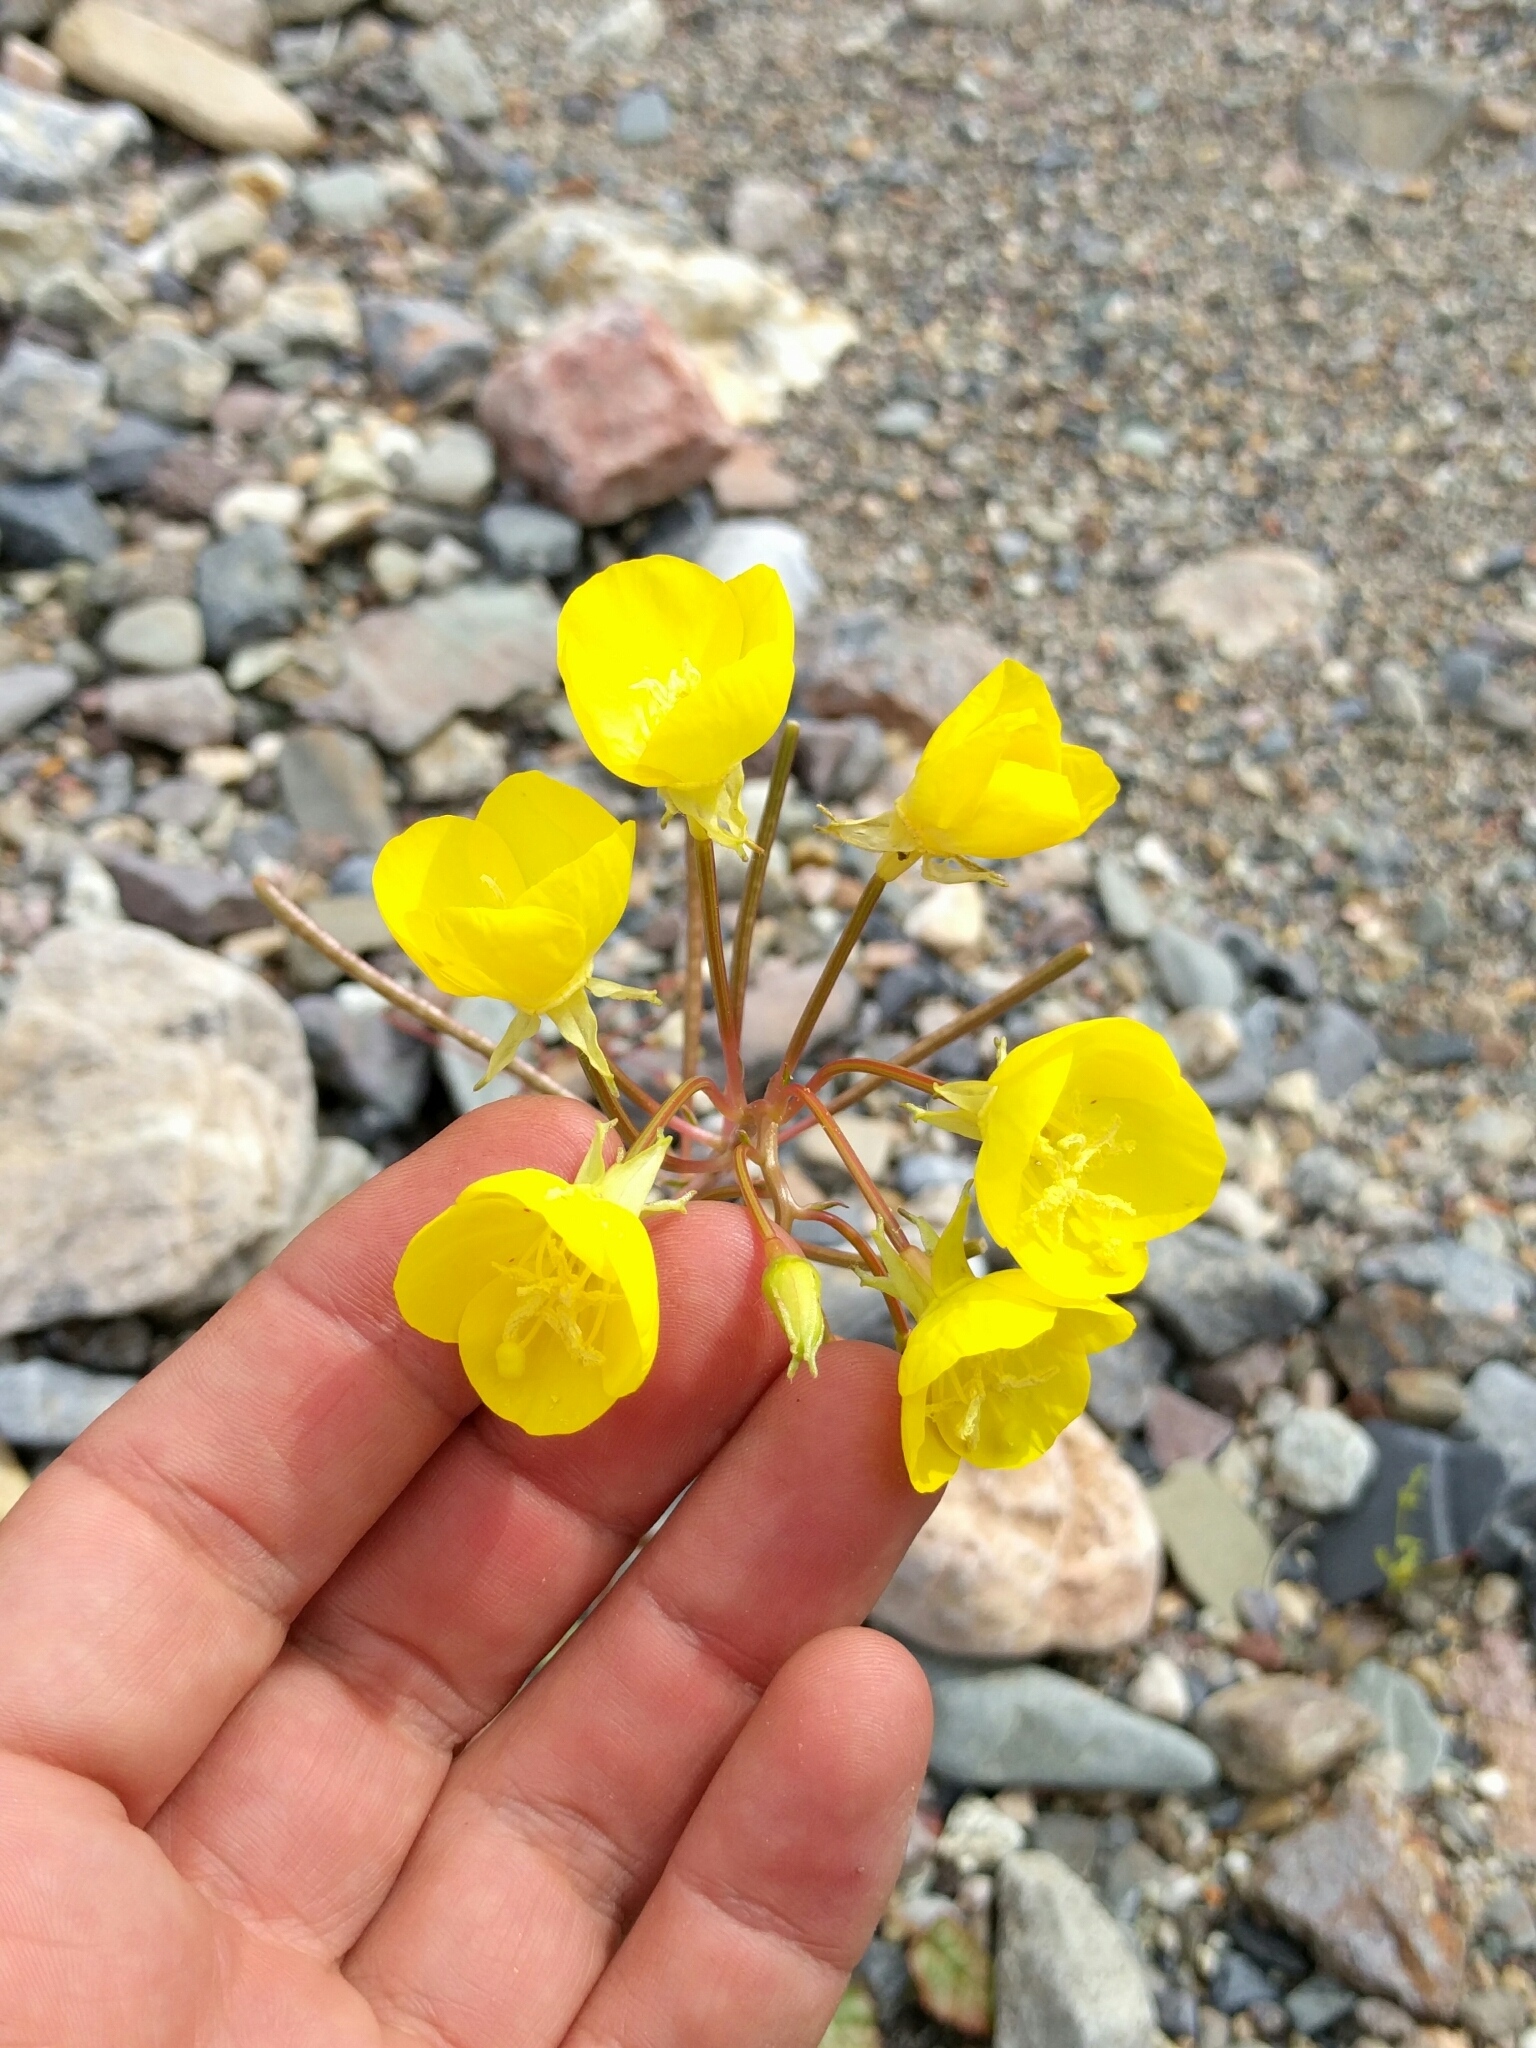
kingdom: Plantae
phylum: Tracheophyta
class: Magnoliopsida
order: Myrtales
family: Onagraceae
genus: Chylismia
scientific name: Chylismia brevipes
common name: Yellow cups
